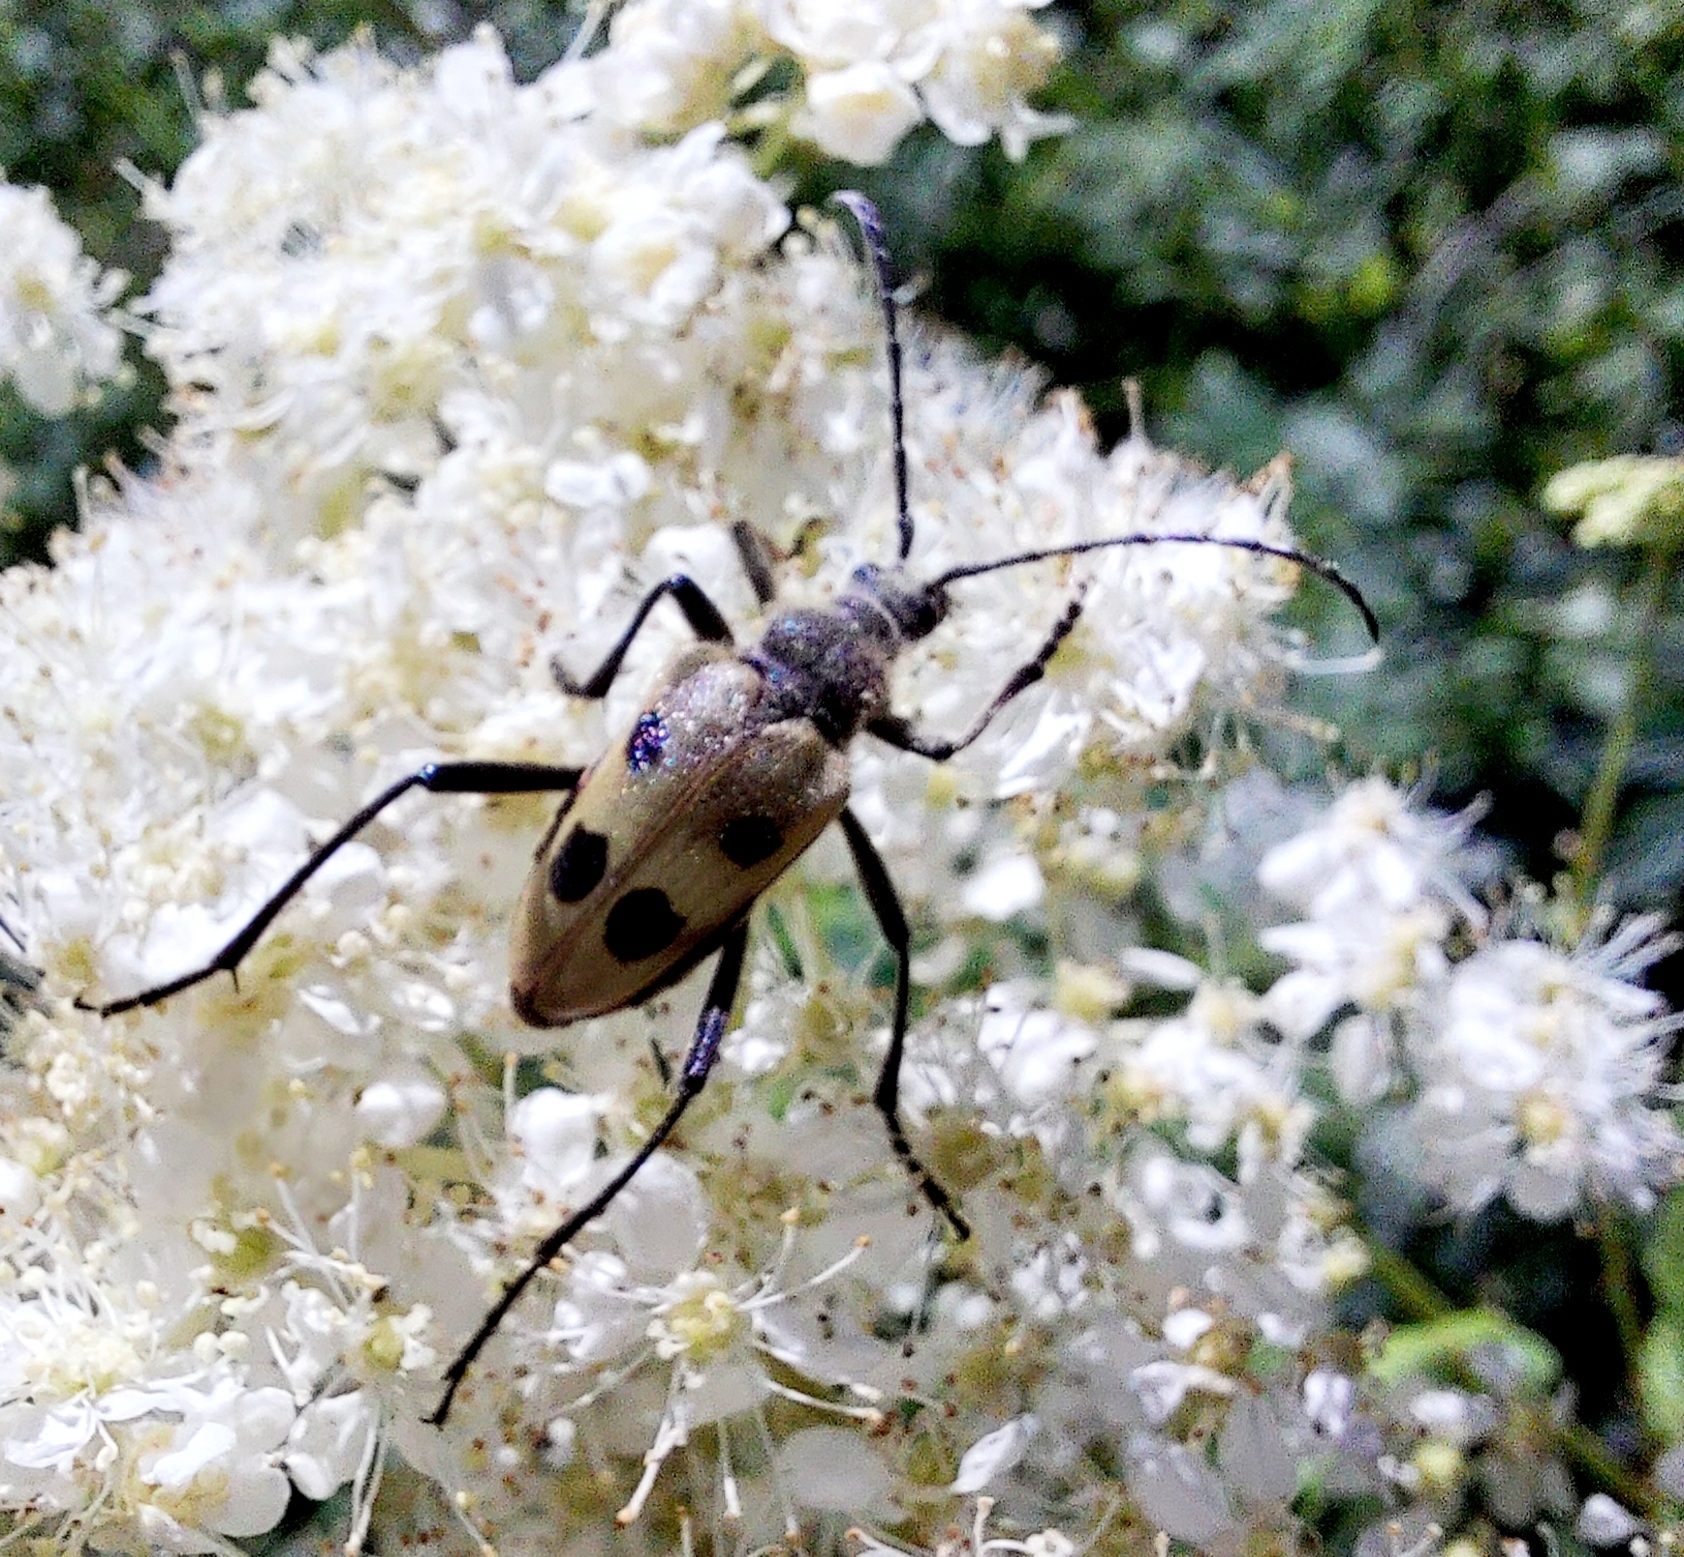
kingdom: Animalia
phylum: Arthropoda
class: Insecta
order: Coleoptera
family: Cerambycidae
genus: Pachyta
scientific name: Pachyta quadrimaculata
